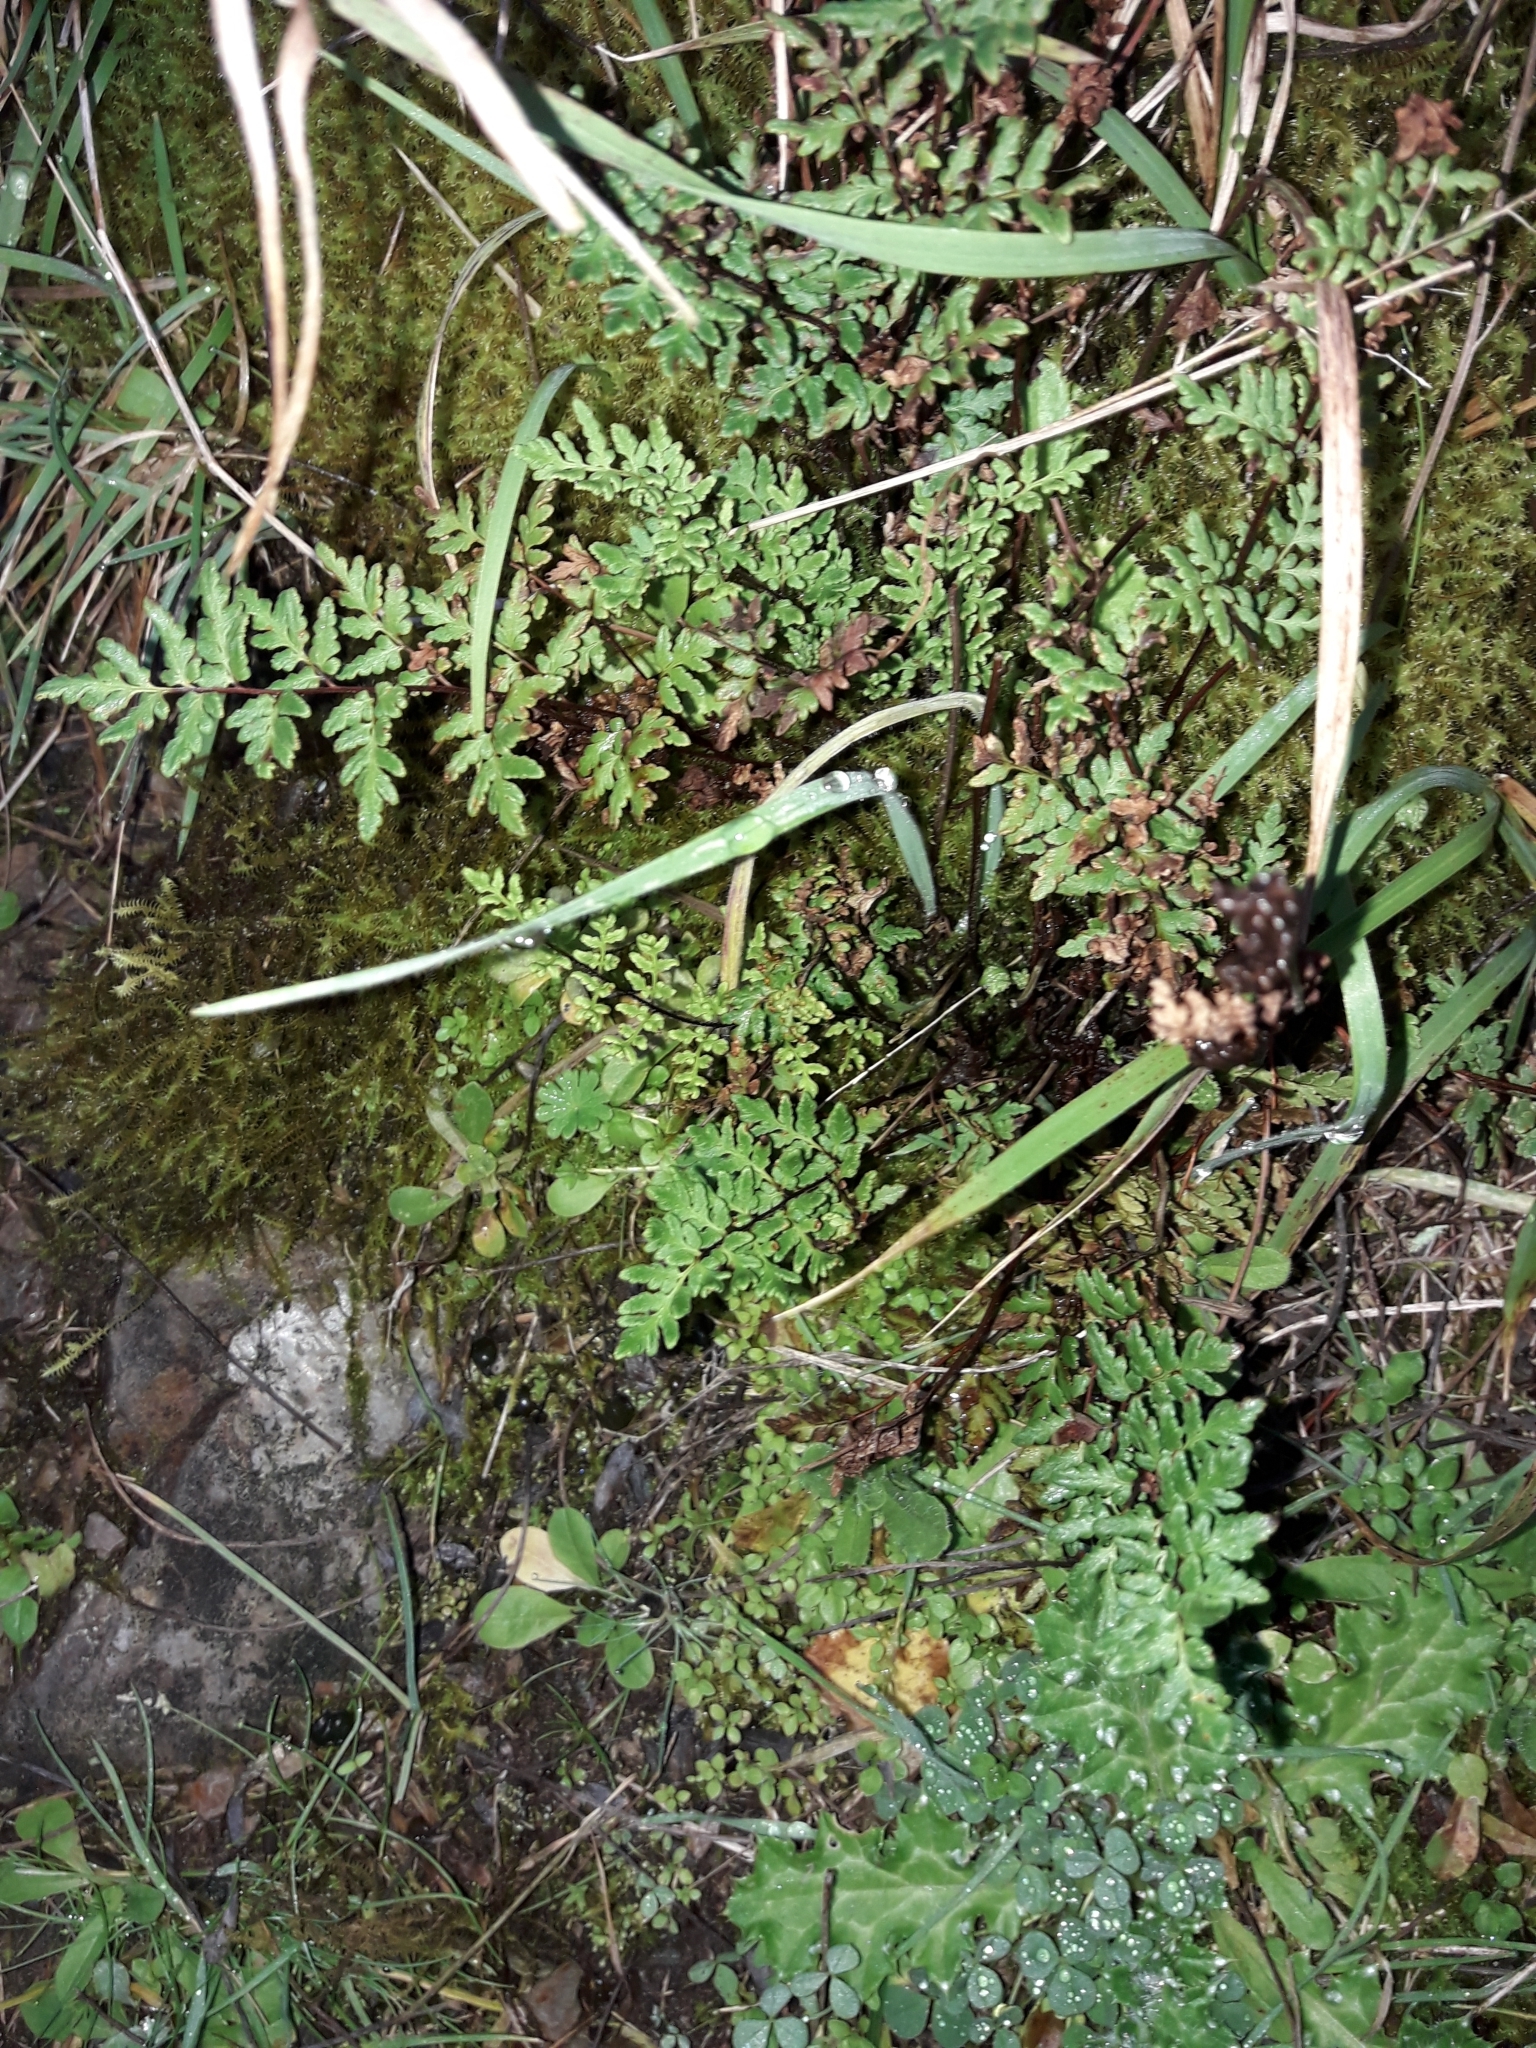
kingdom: Plantae
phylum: Tracheophyta
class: Polypodiopsida
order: Polypodiales
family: Pteridaceae
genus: Cheilanthes
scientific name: Cheilanthes distans
